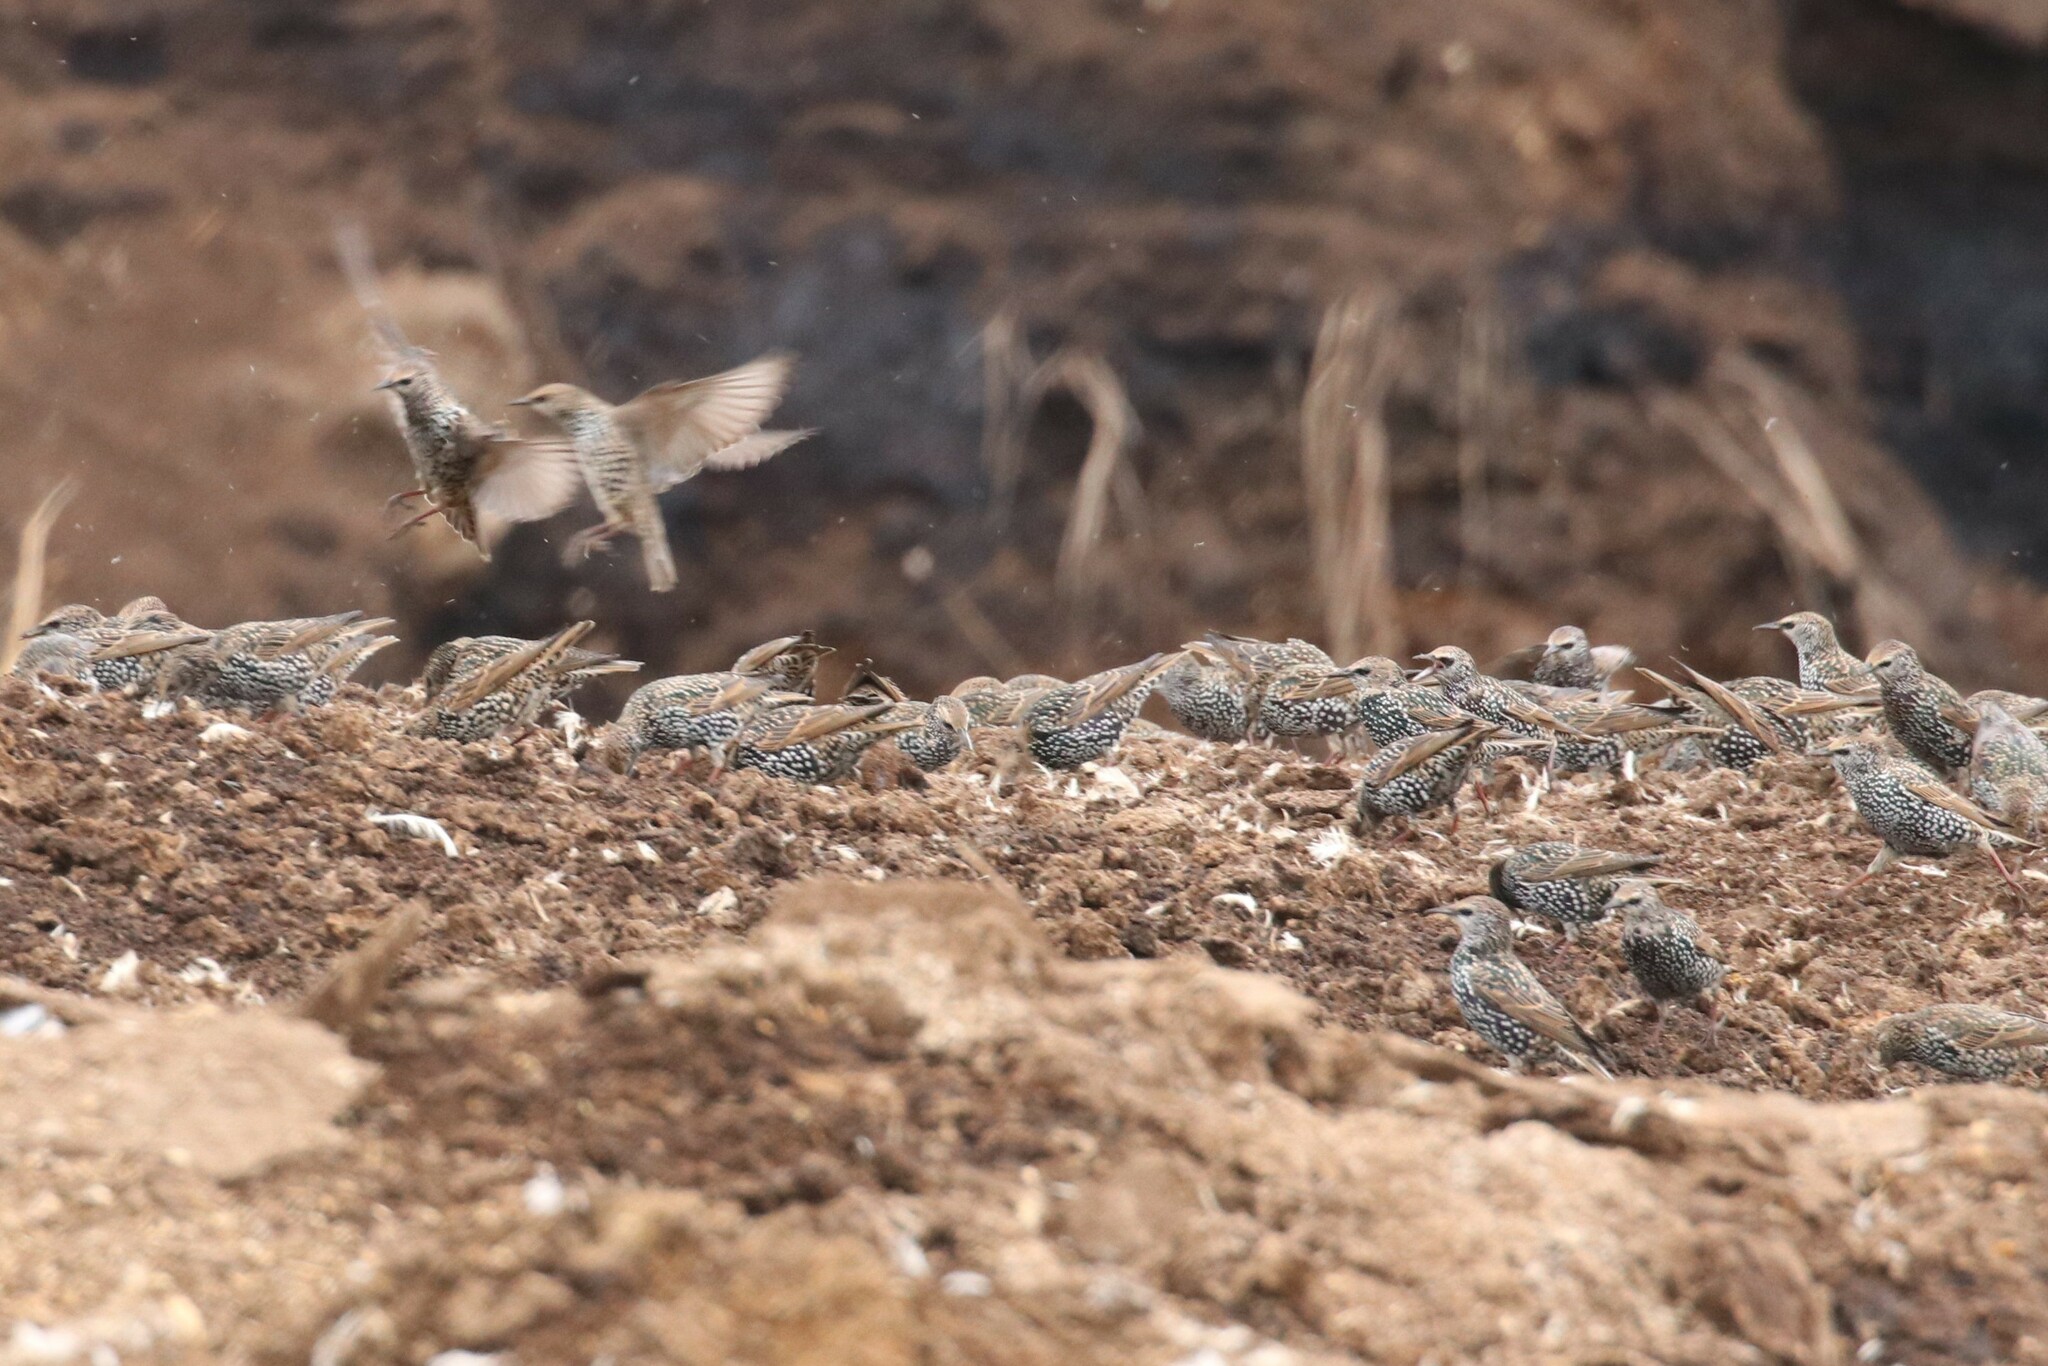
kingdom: Animalia
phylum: Chordata
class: Aves
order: Passeriformes
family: Sturnidae
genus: Sturnus
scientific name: Sturnus vulgaris
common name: Common starling
